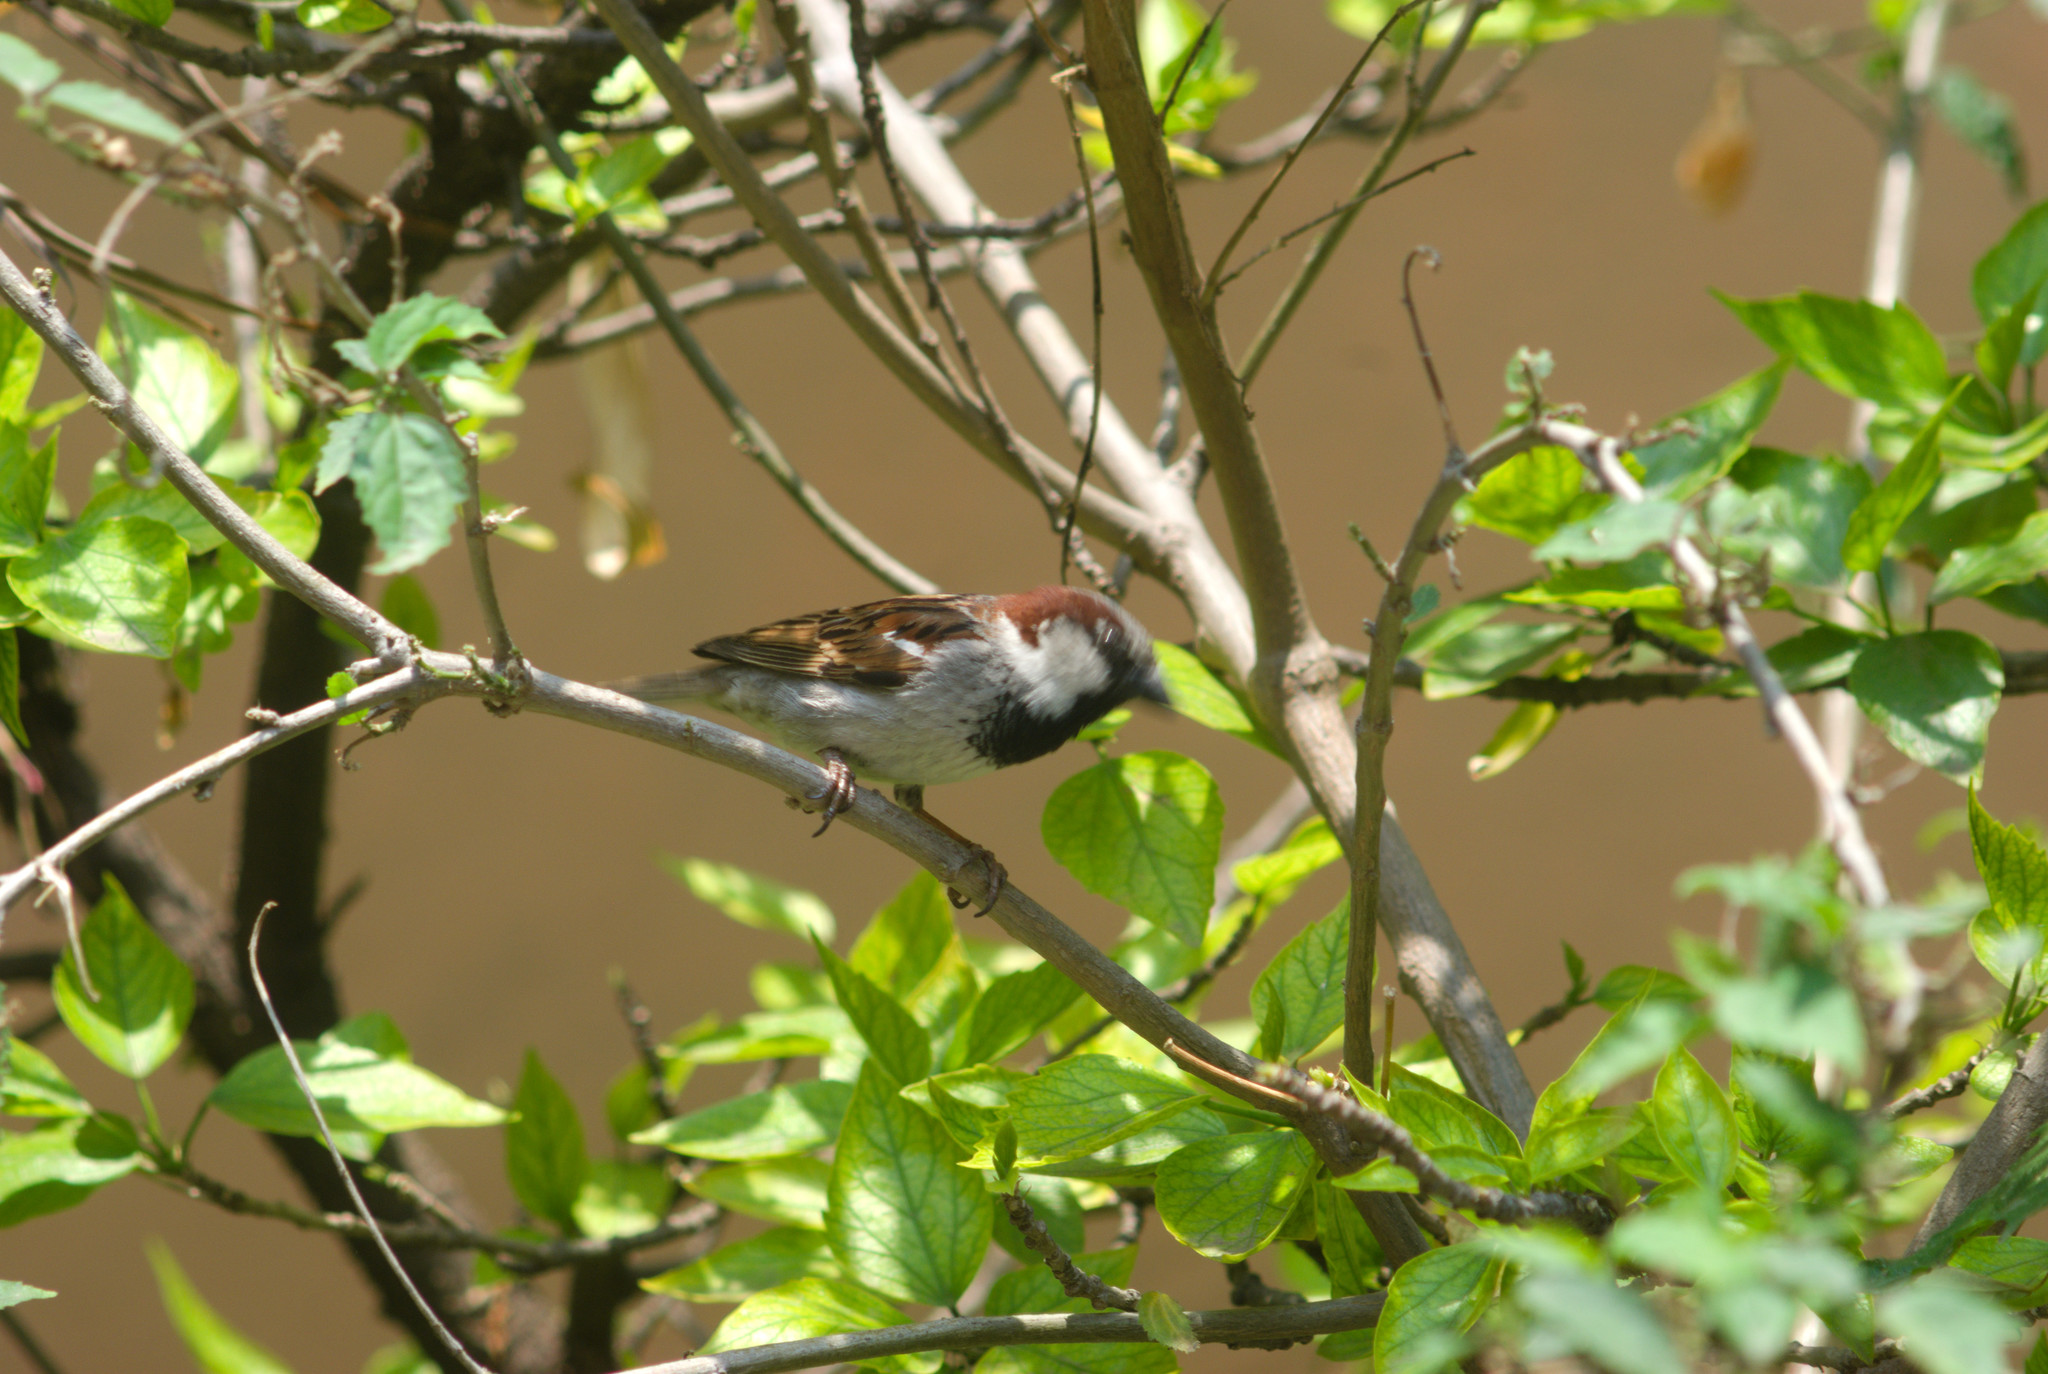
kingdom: Animalia
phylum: Chordata
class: Aves
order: Passeriformes
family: Passeridae
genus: Passer
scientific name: Passer domesticus
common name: House sparrow
